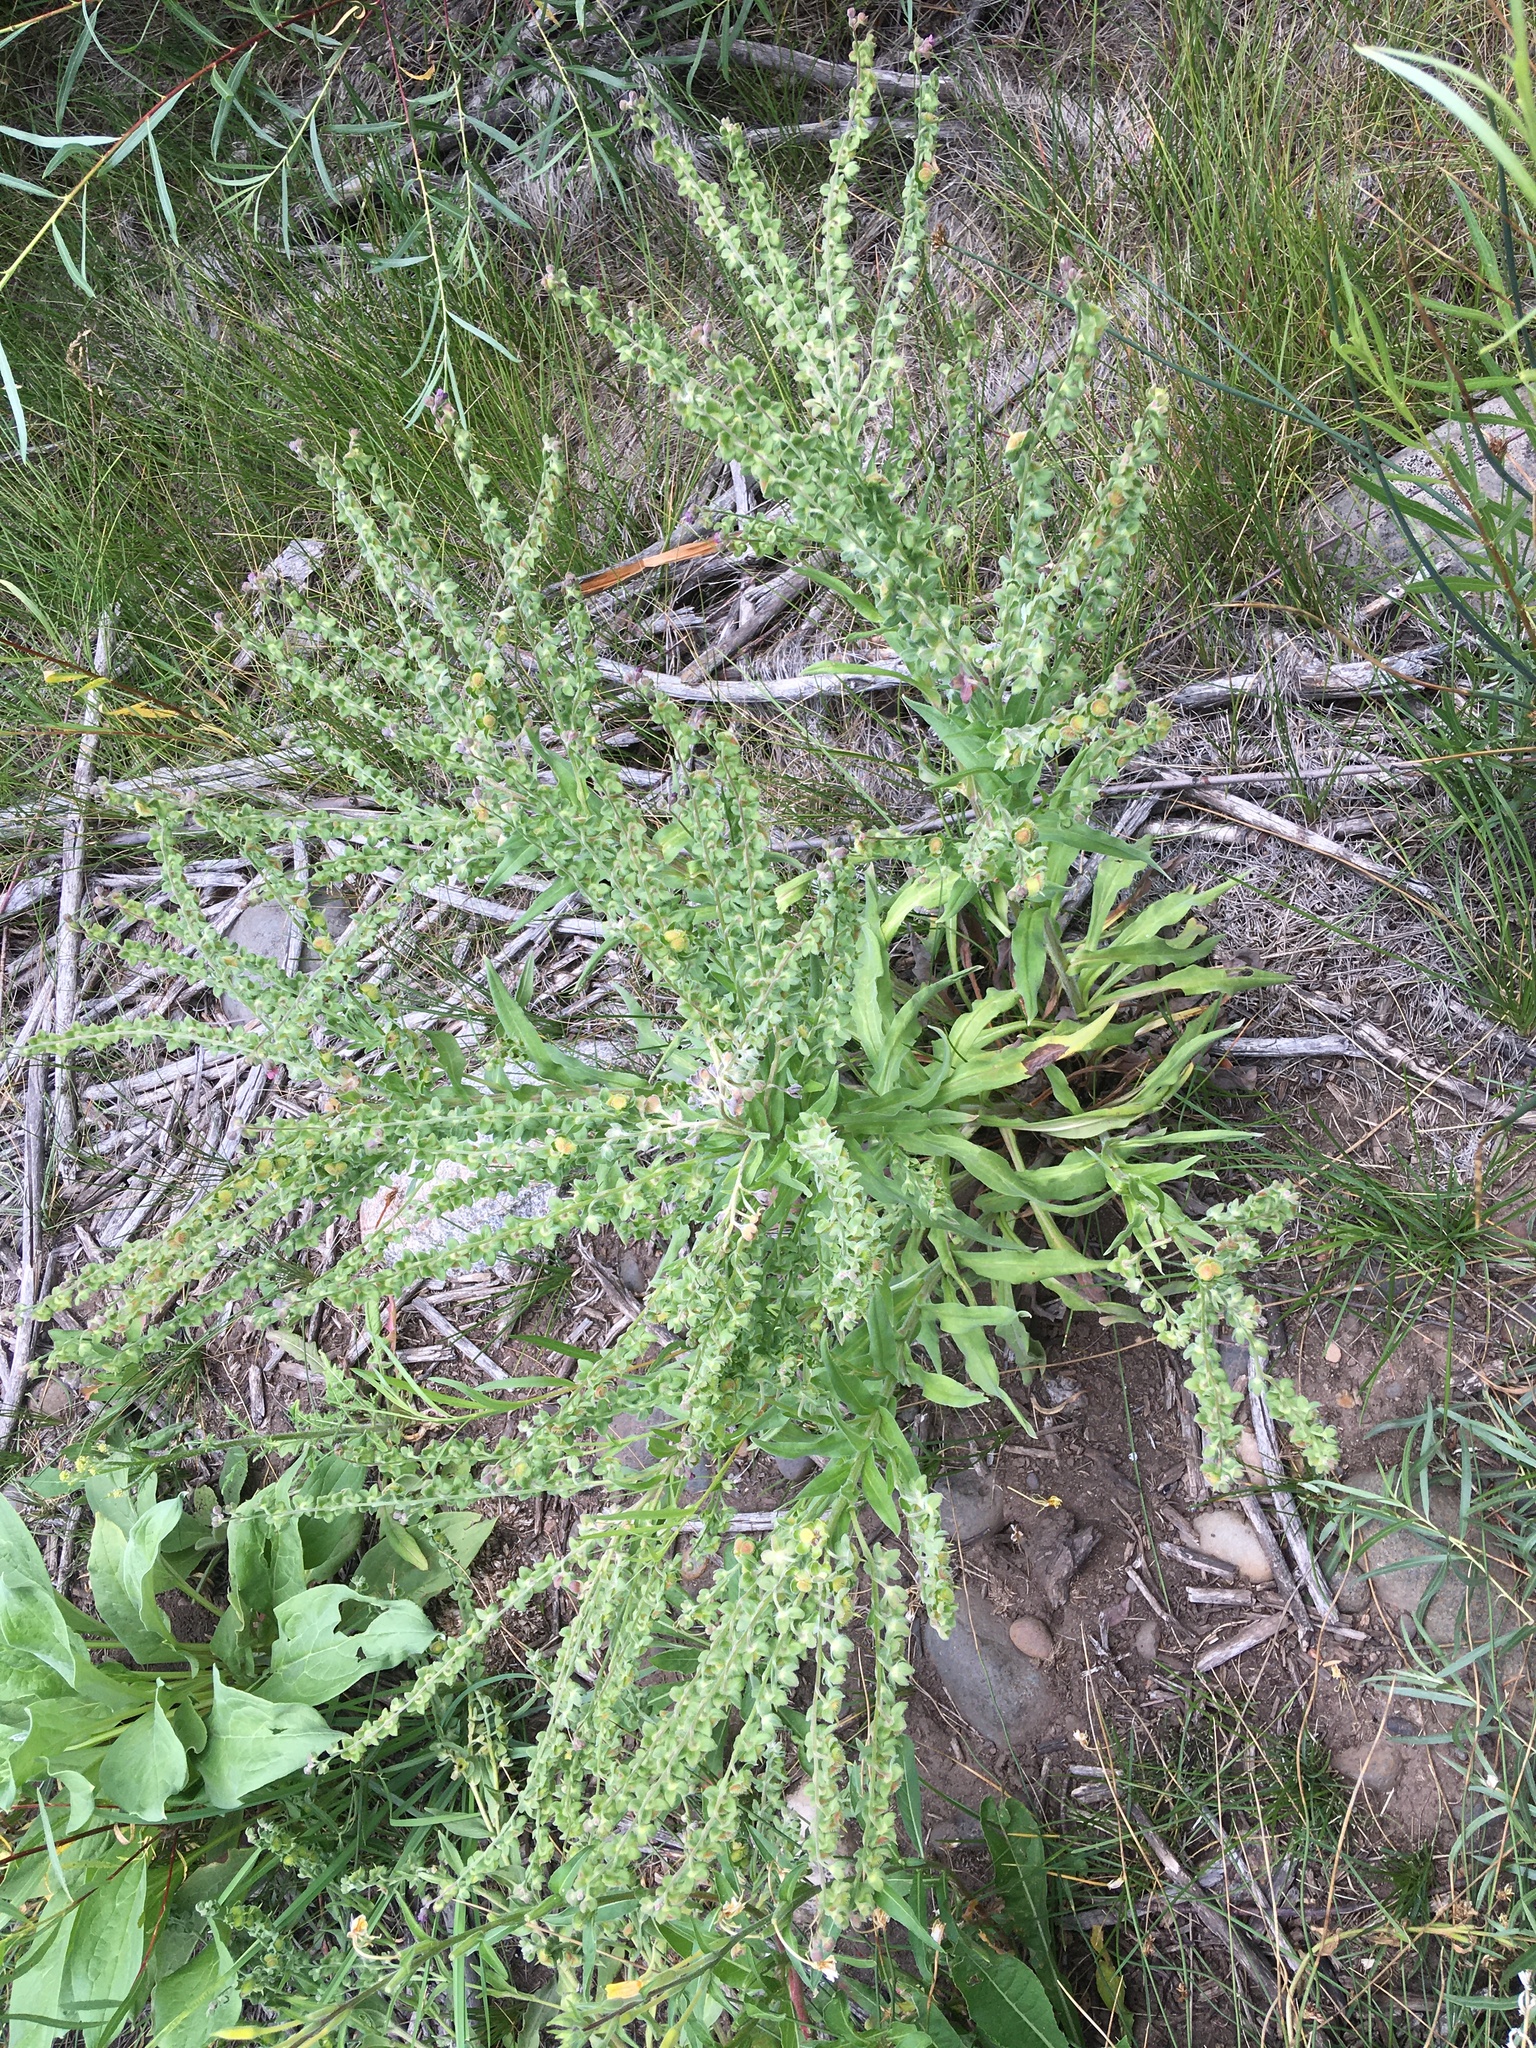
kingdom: Plantae
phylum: Tracheophyta
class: Magnoliopsida
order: Boraginales
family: Boraginaceae
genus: Cynoglossum
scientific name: Cynoglossum officinale
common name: Hound's-tongue
